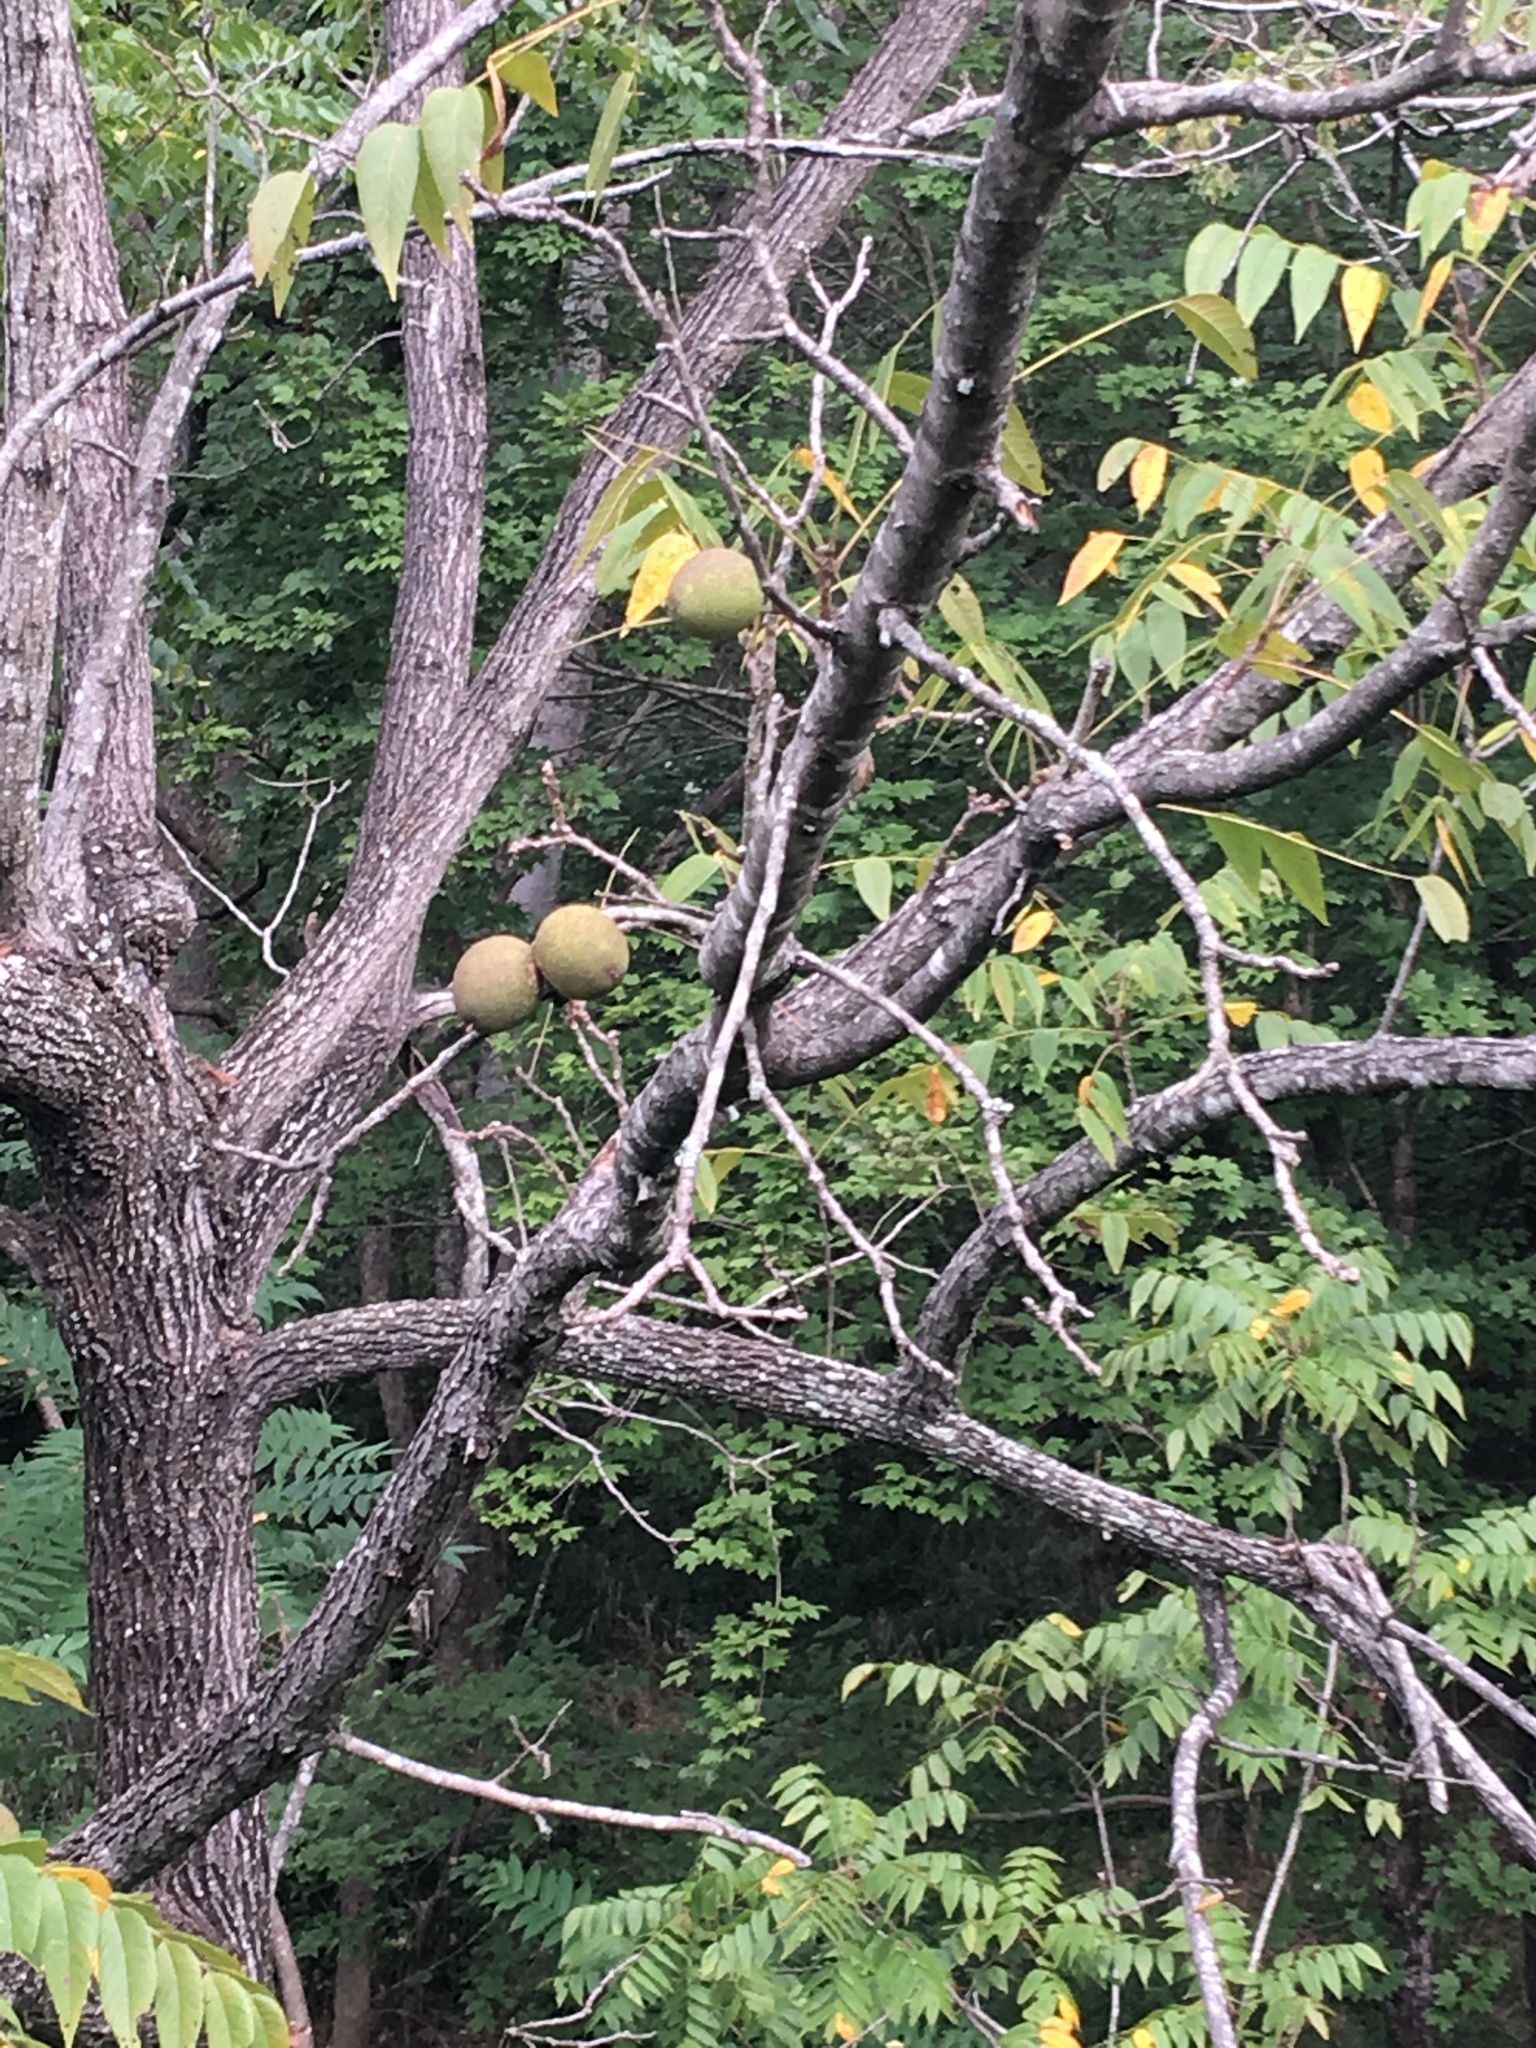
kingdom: Plantae
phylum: Tracheophyta
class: Magnoliopsida
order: Fagales
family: Juglandaceae
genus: Juglans
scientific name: Juglans nigra
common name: Black walnut
